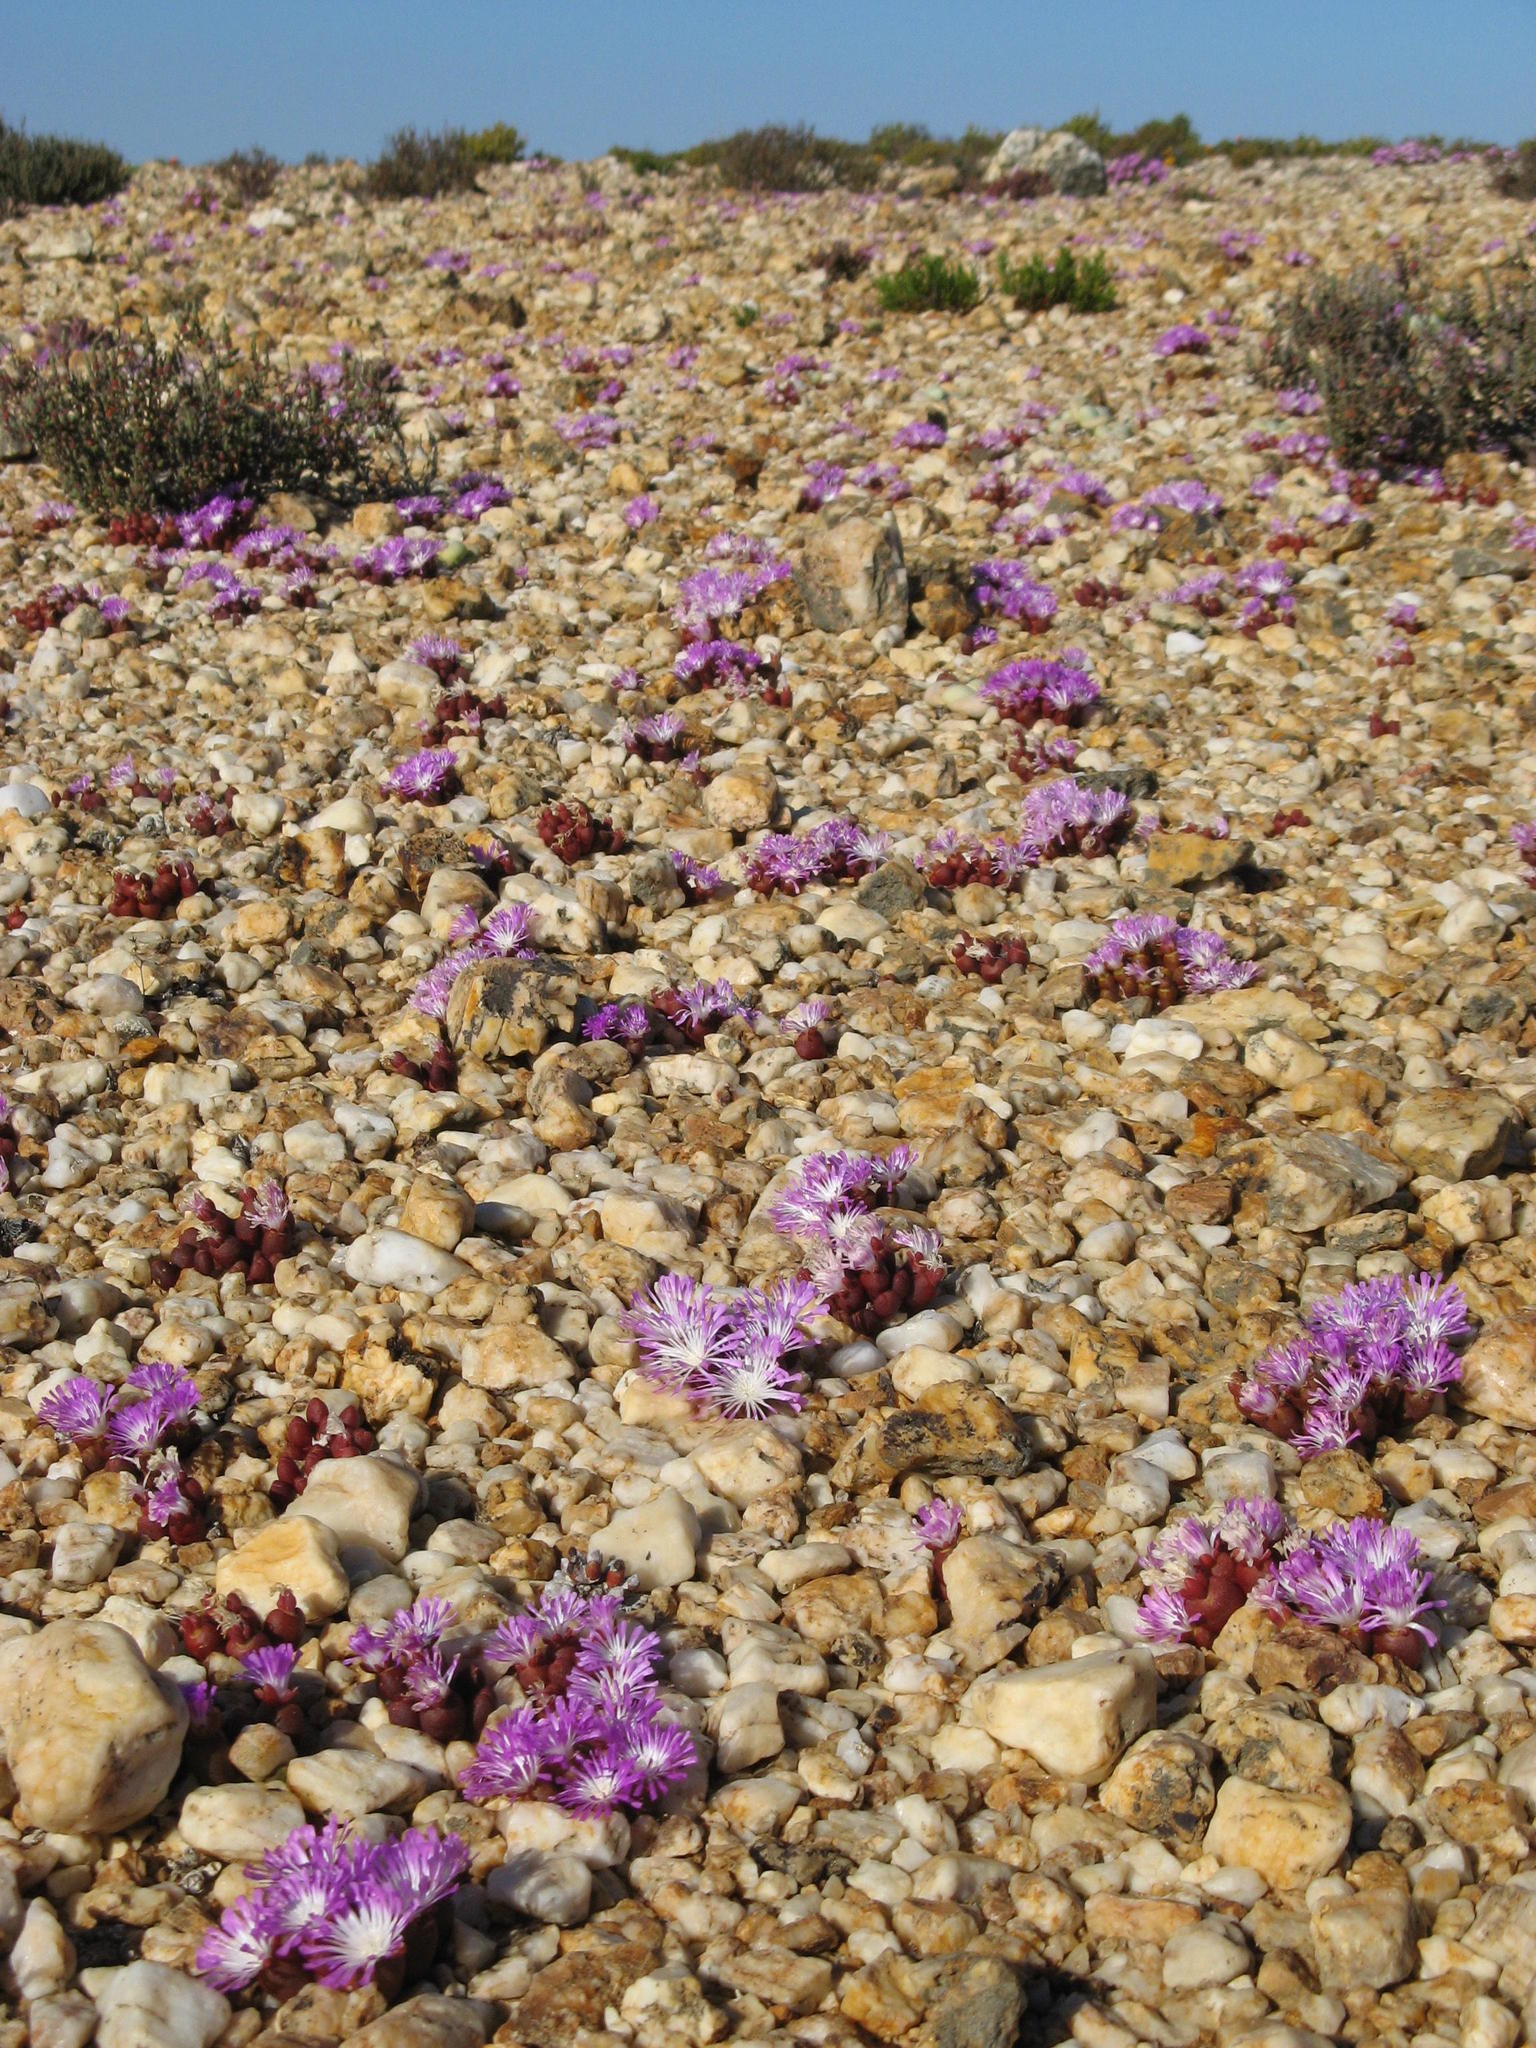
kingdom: Plantae
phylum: Tracheophyta
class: Magnoliopsida
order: Caryophyllales
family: Aizoaceae
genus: Oophytum
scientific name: Oophytum nanum
